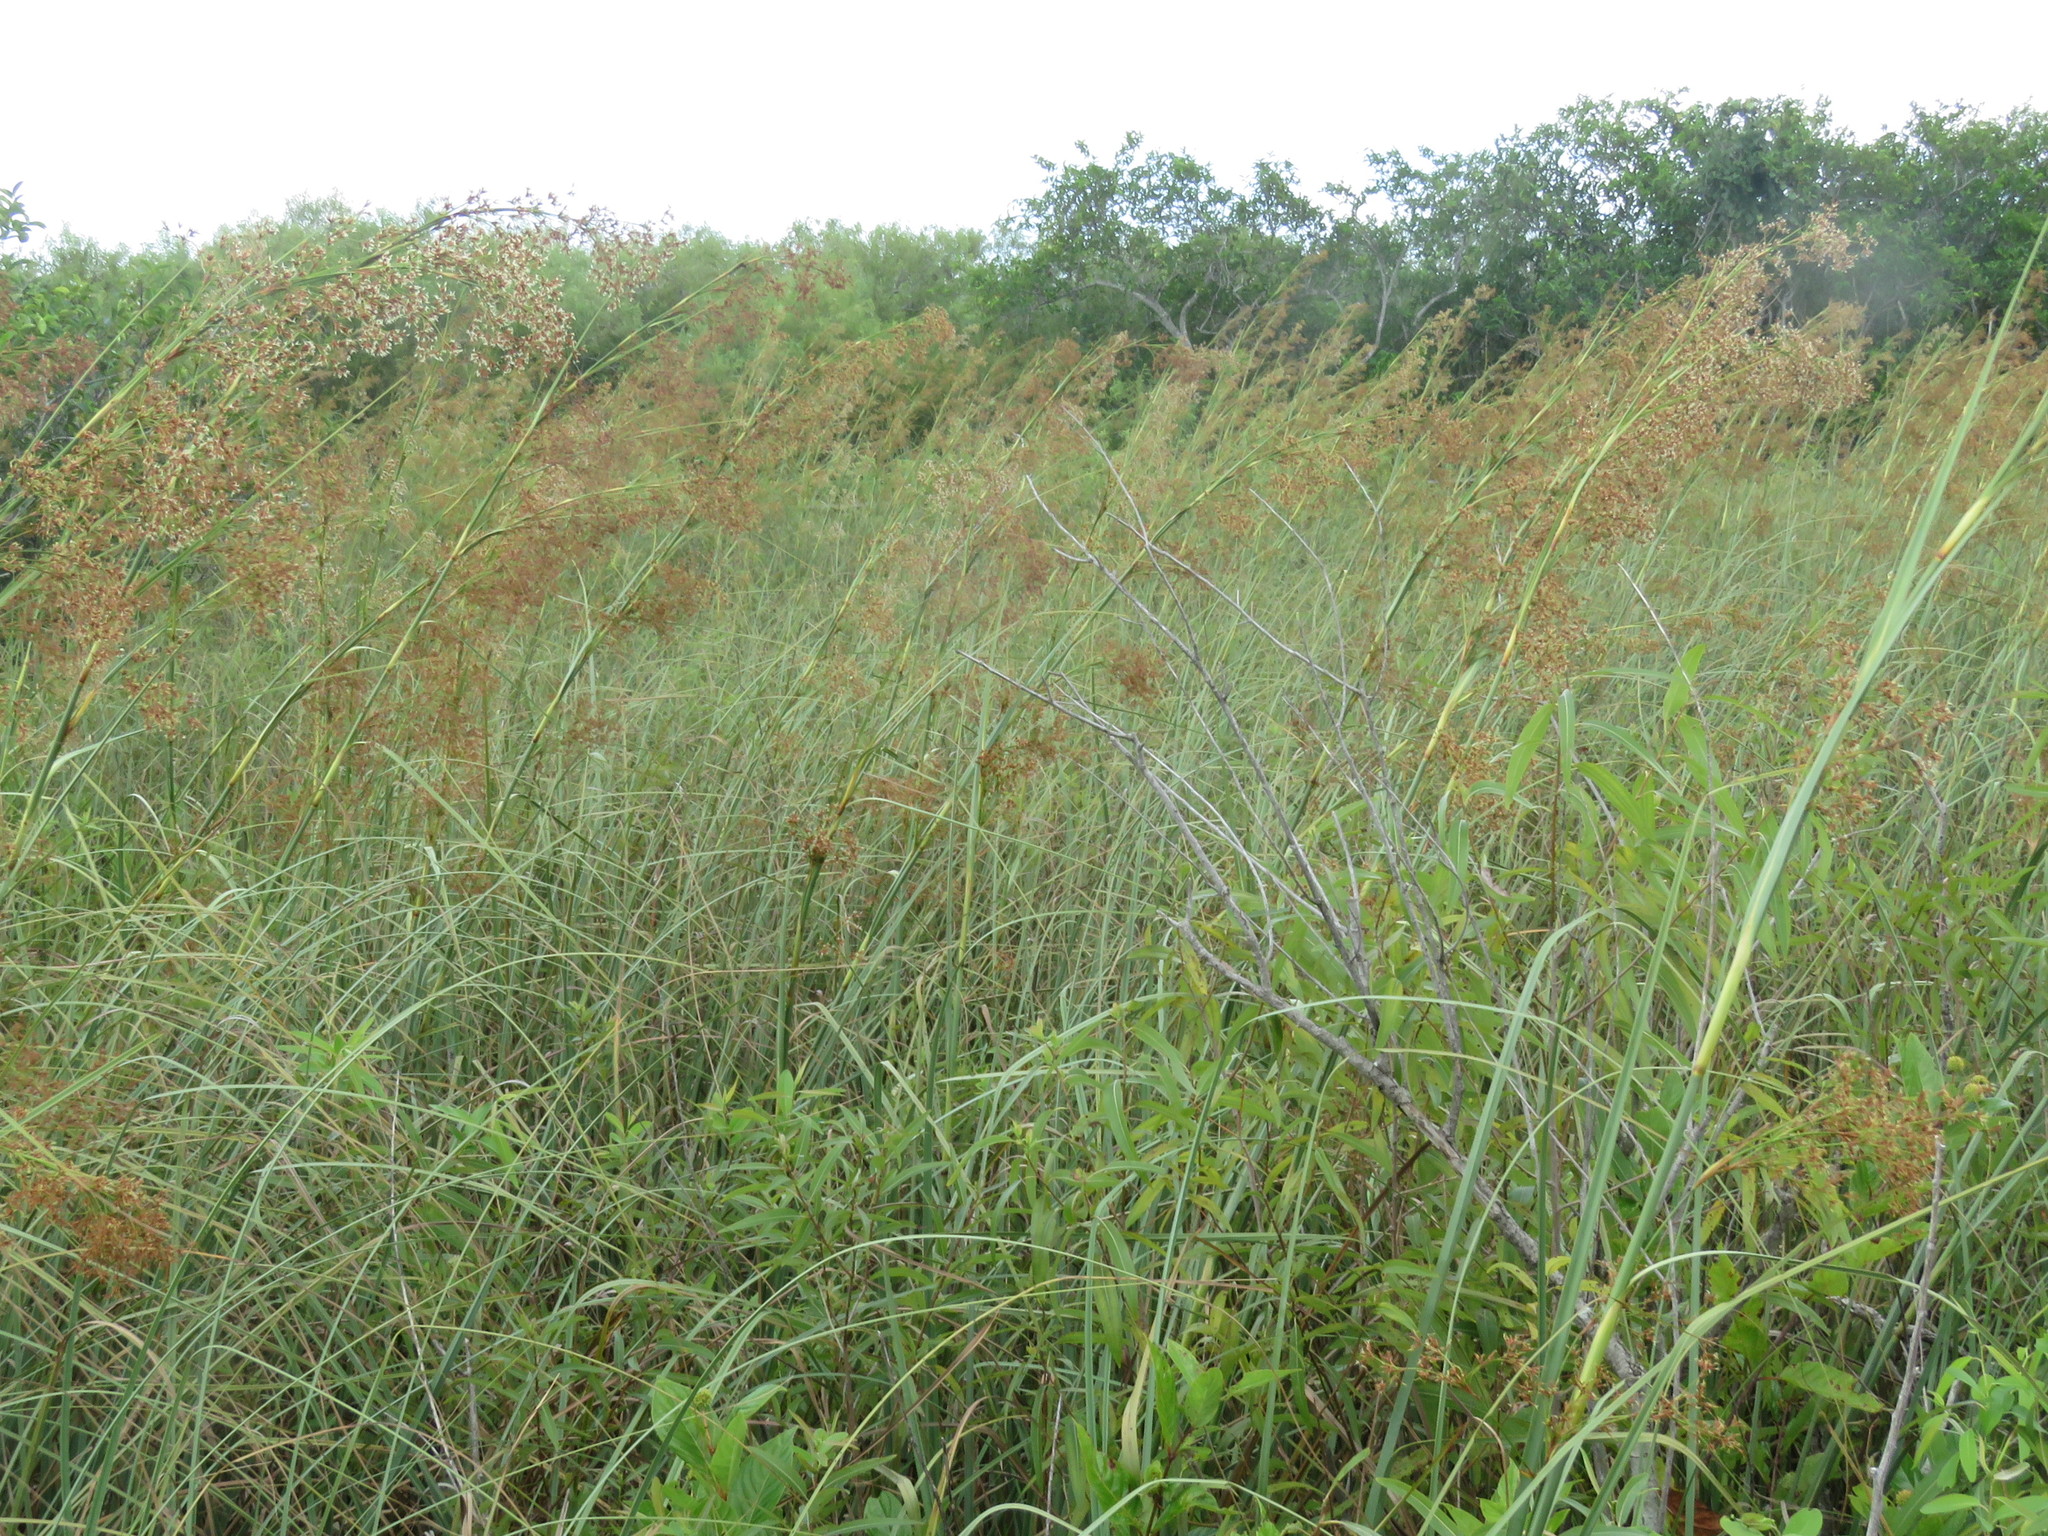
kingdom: Plantae
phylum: Tracheophyta
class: Liliopsida
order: Poales
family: Cyperaceae
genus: Cladium
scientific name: Cladium mariscus
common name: Great fen-sedge
